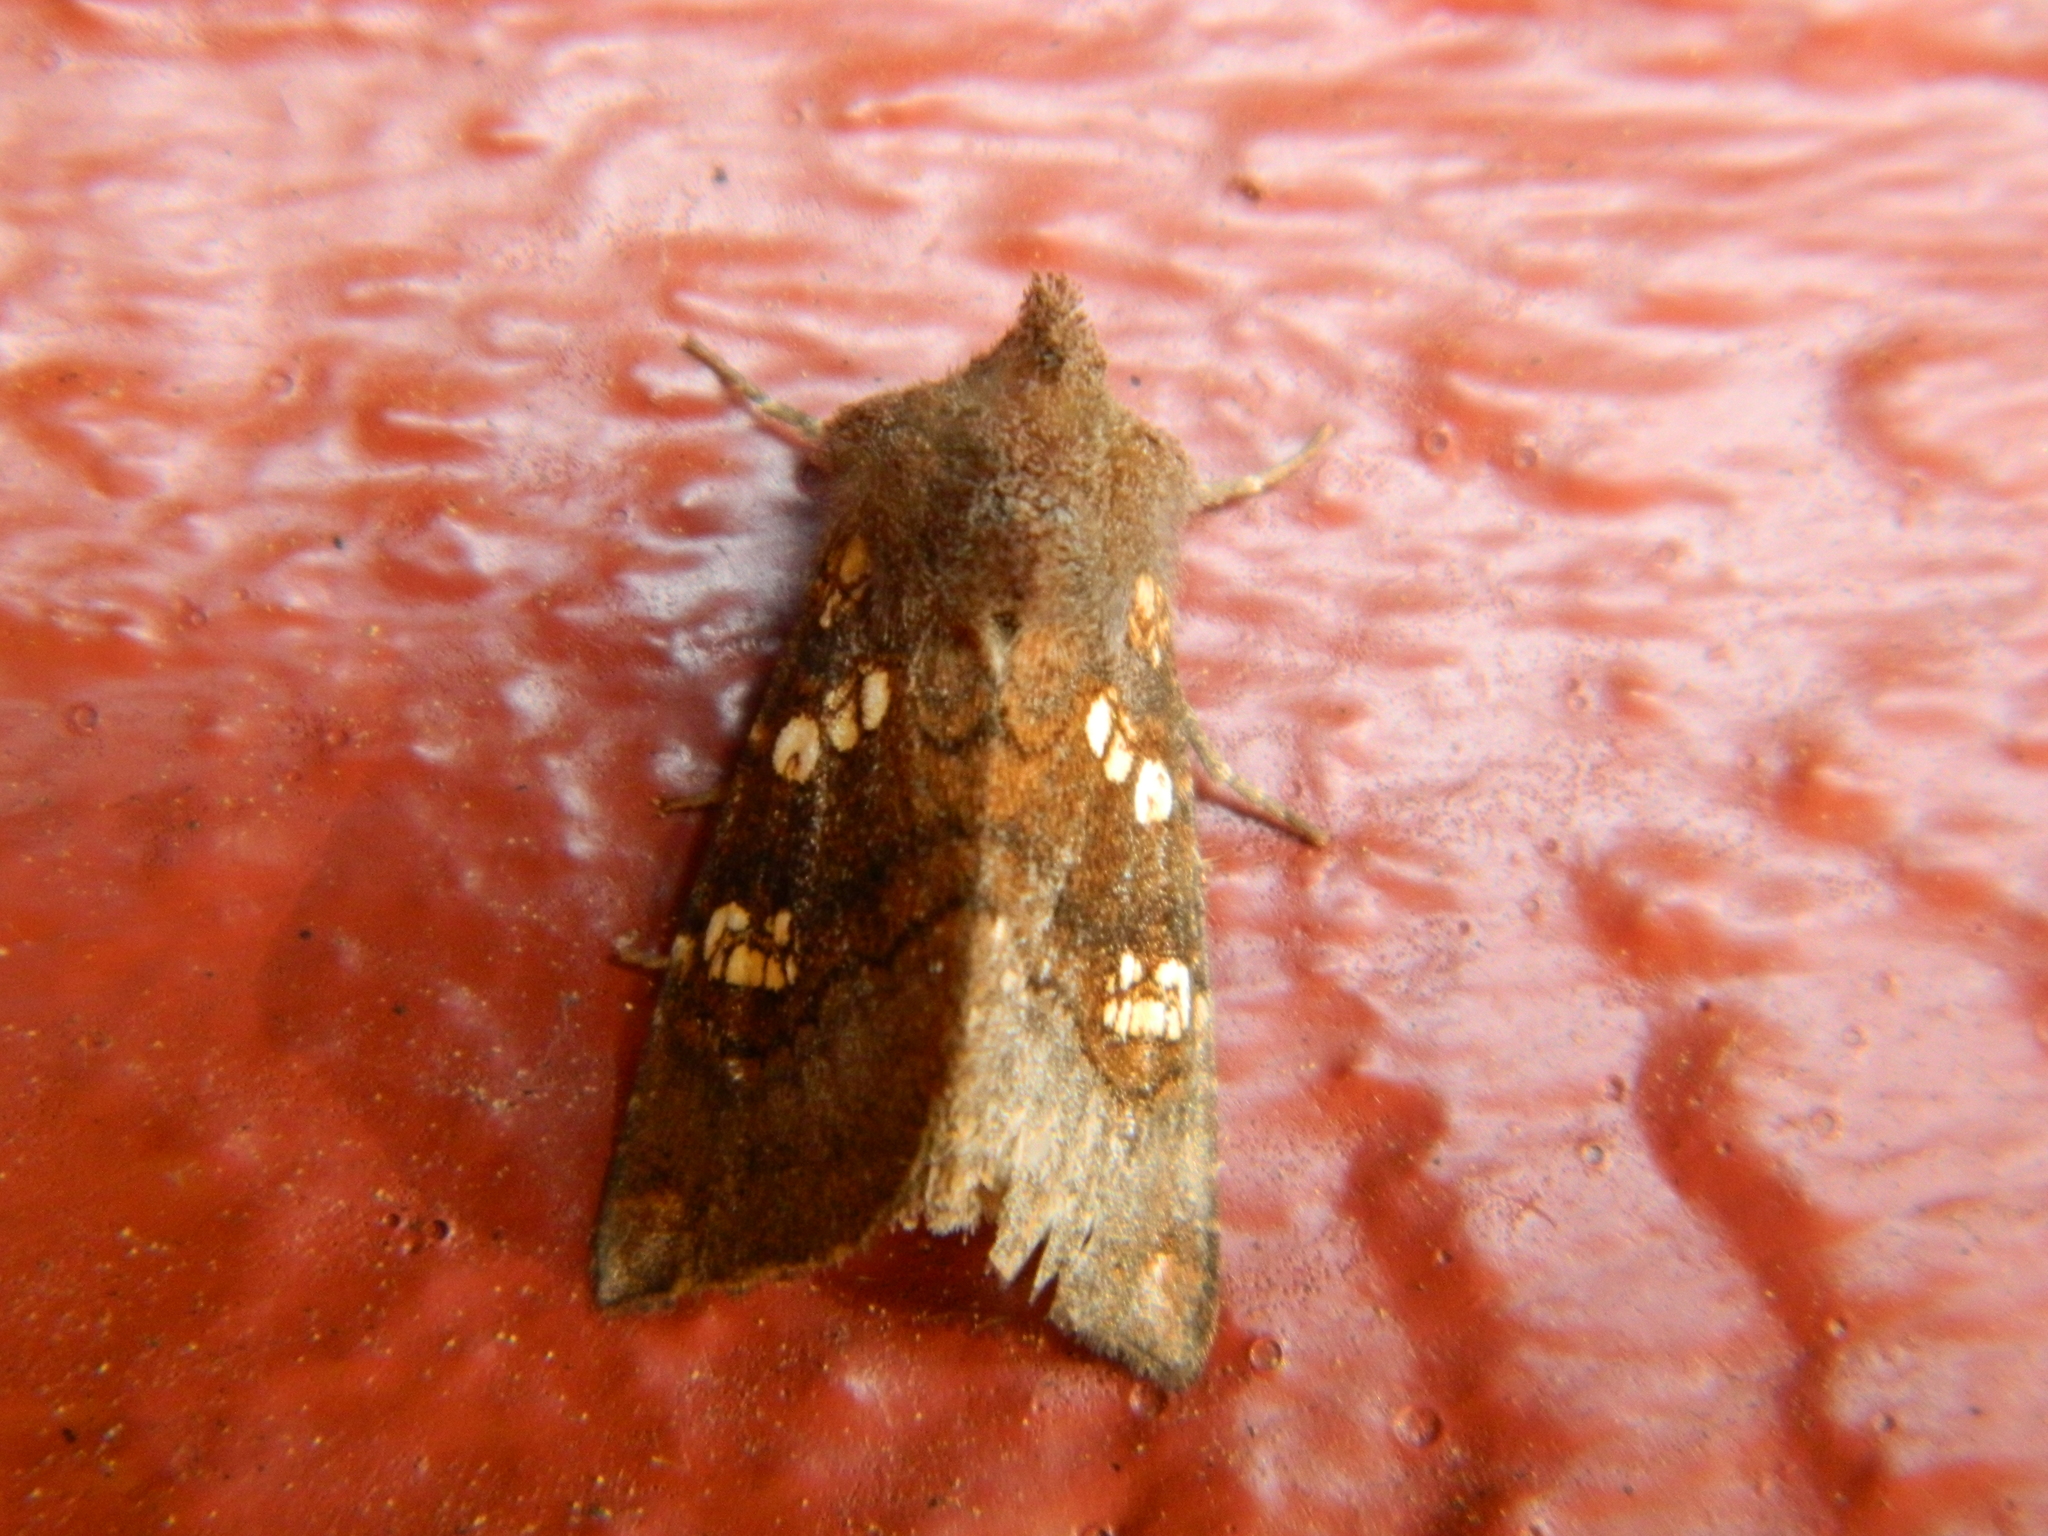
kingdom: Animalia
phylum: Arthropoda
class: Insecta
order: Lepidoptera
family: Noctuidae
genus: Papaipema
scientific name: Papaipema unimoda
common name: Meadow rue borer moth
